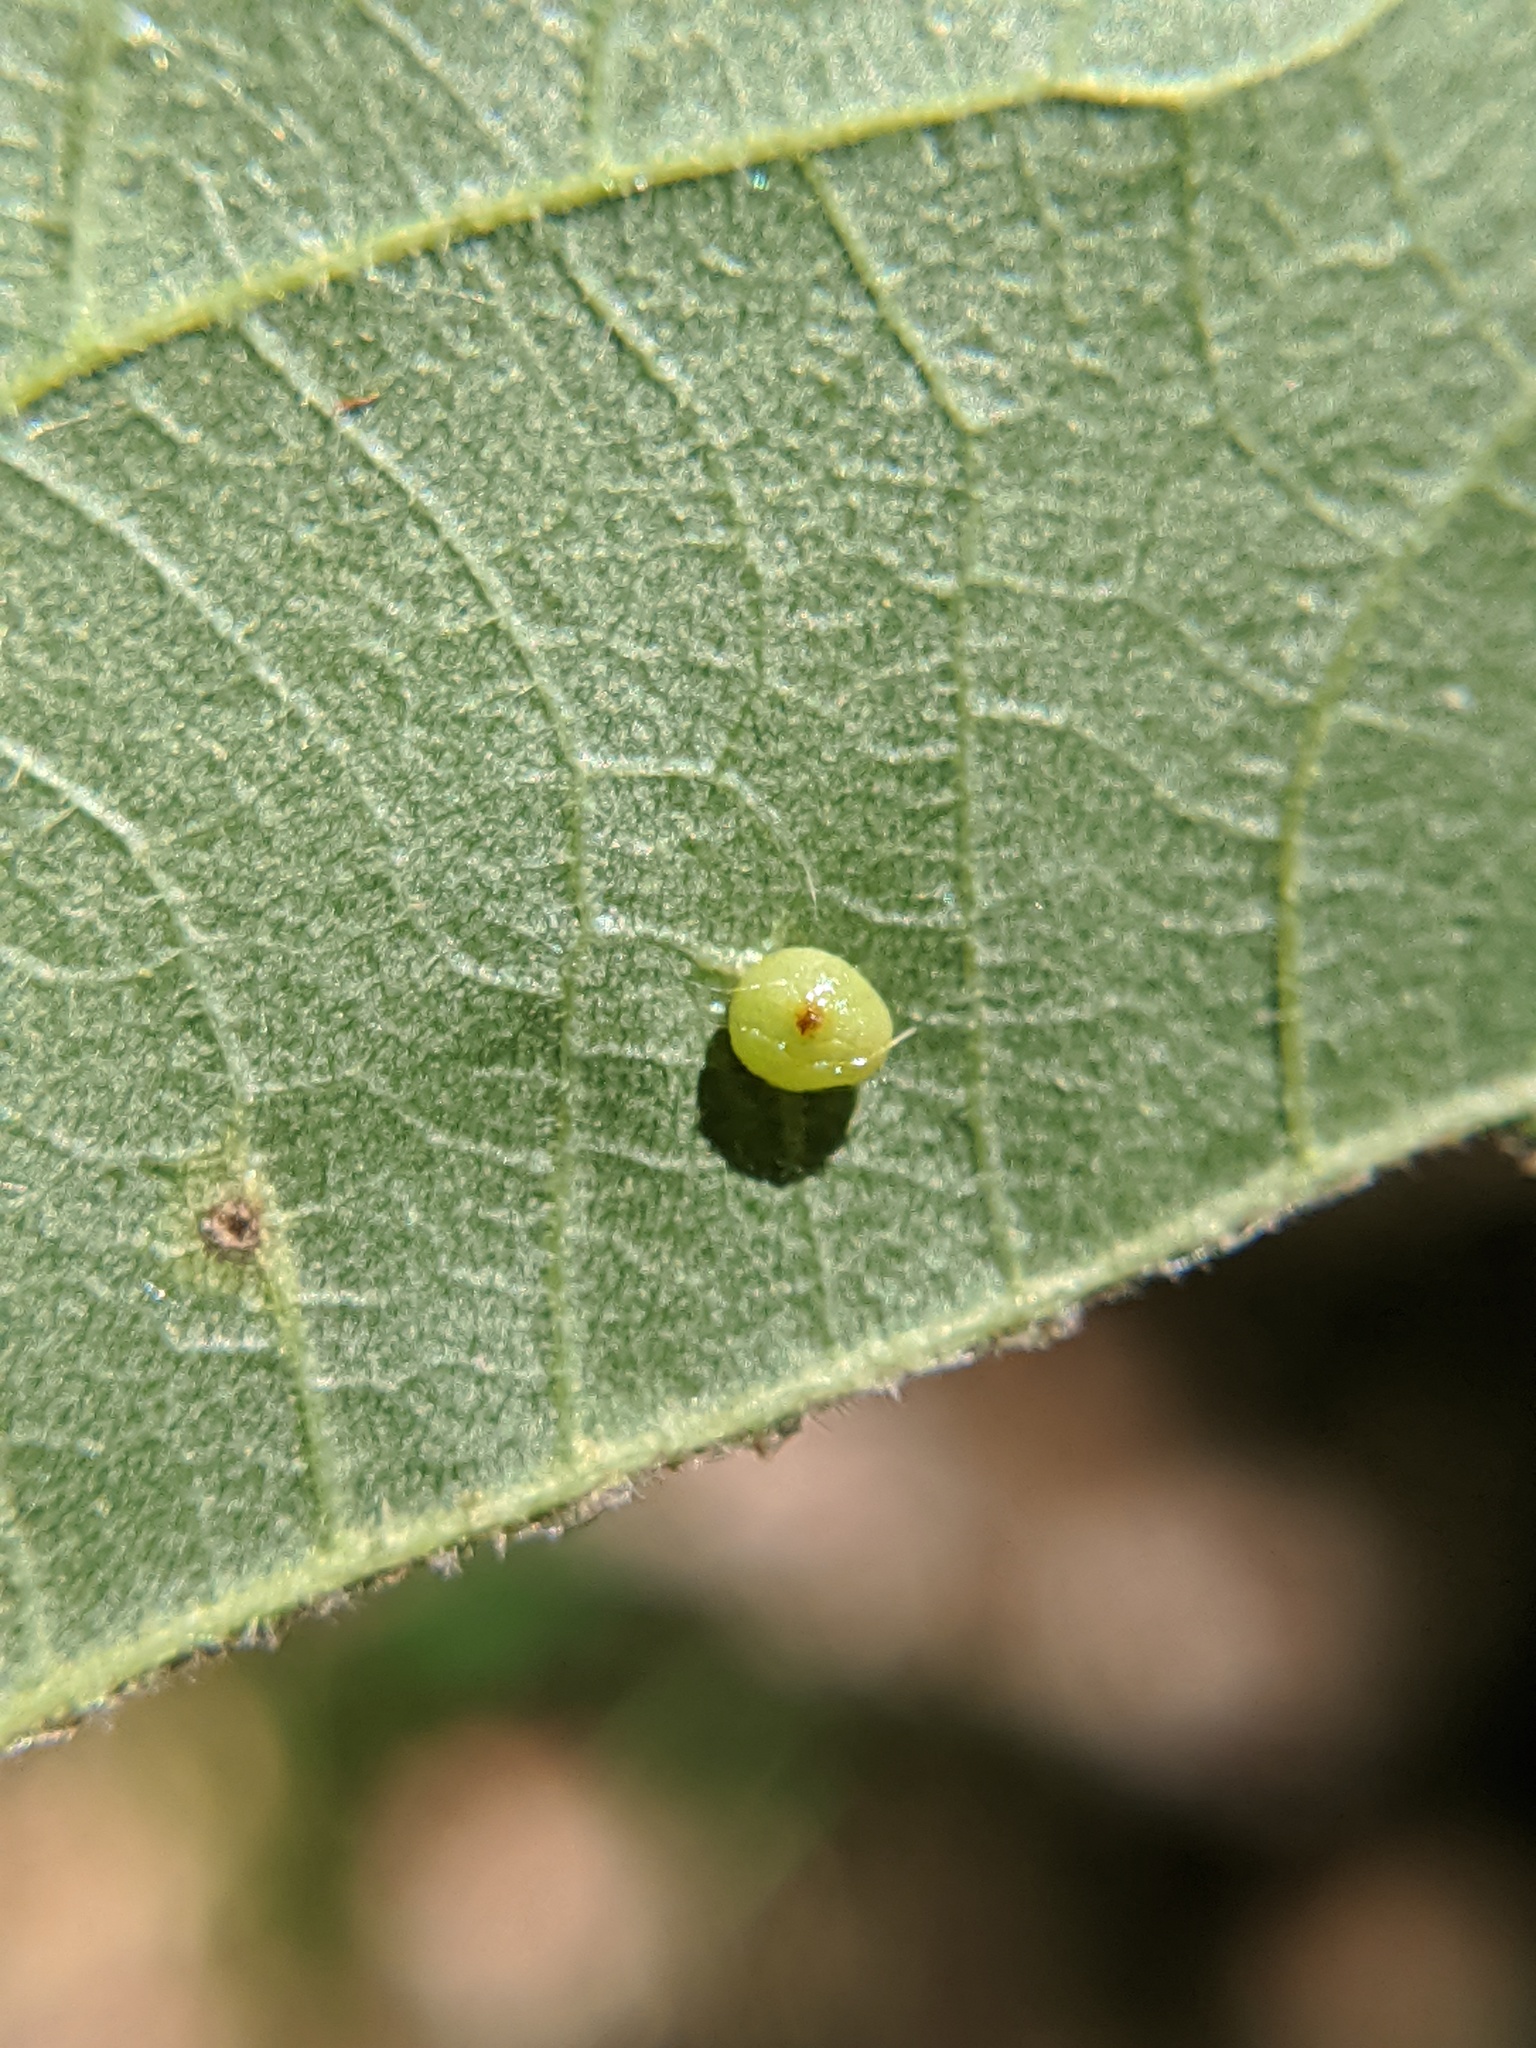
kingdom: Animalia
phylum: Arthropoda
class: Insecta
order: Diptera
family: Cecidomyiidae
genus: Caryomyia
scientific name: Caryomyia caryae
